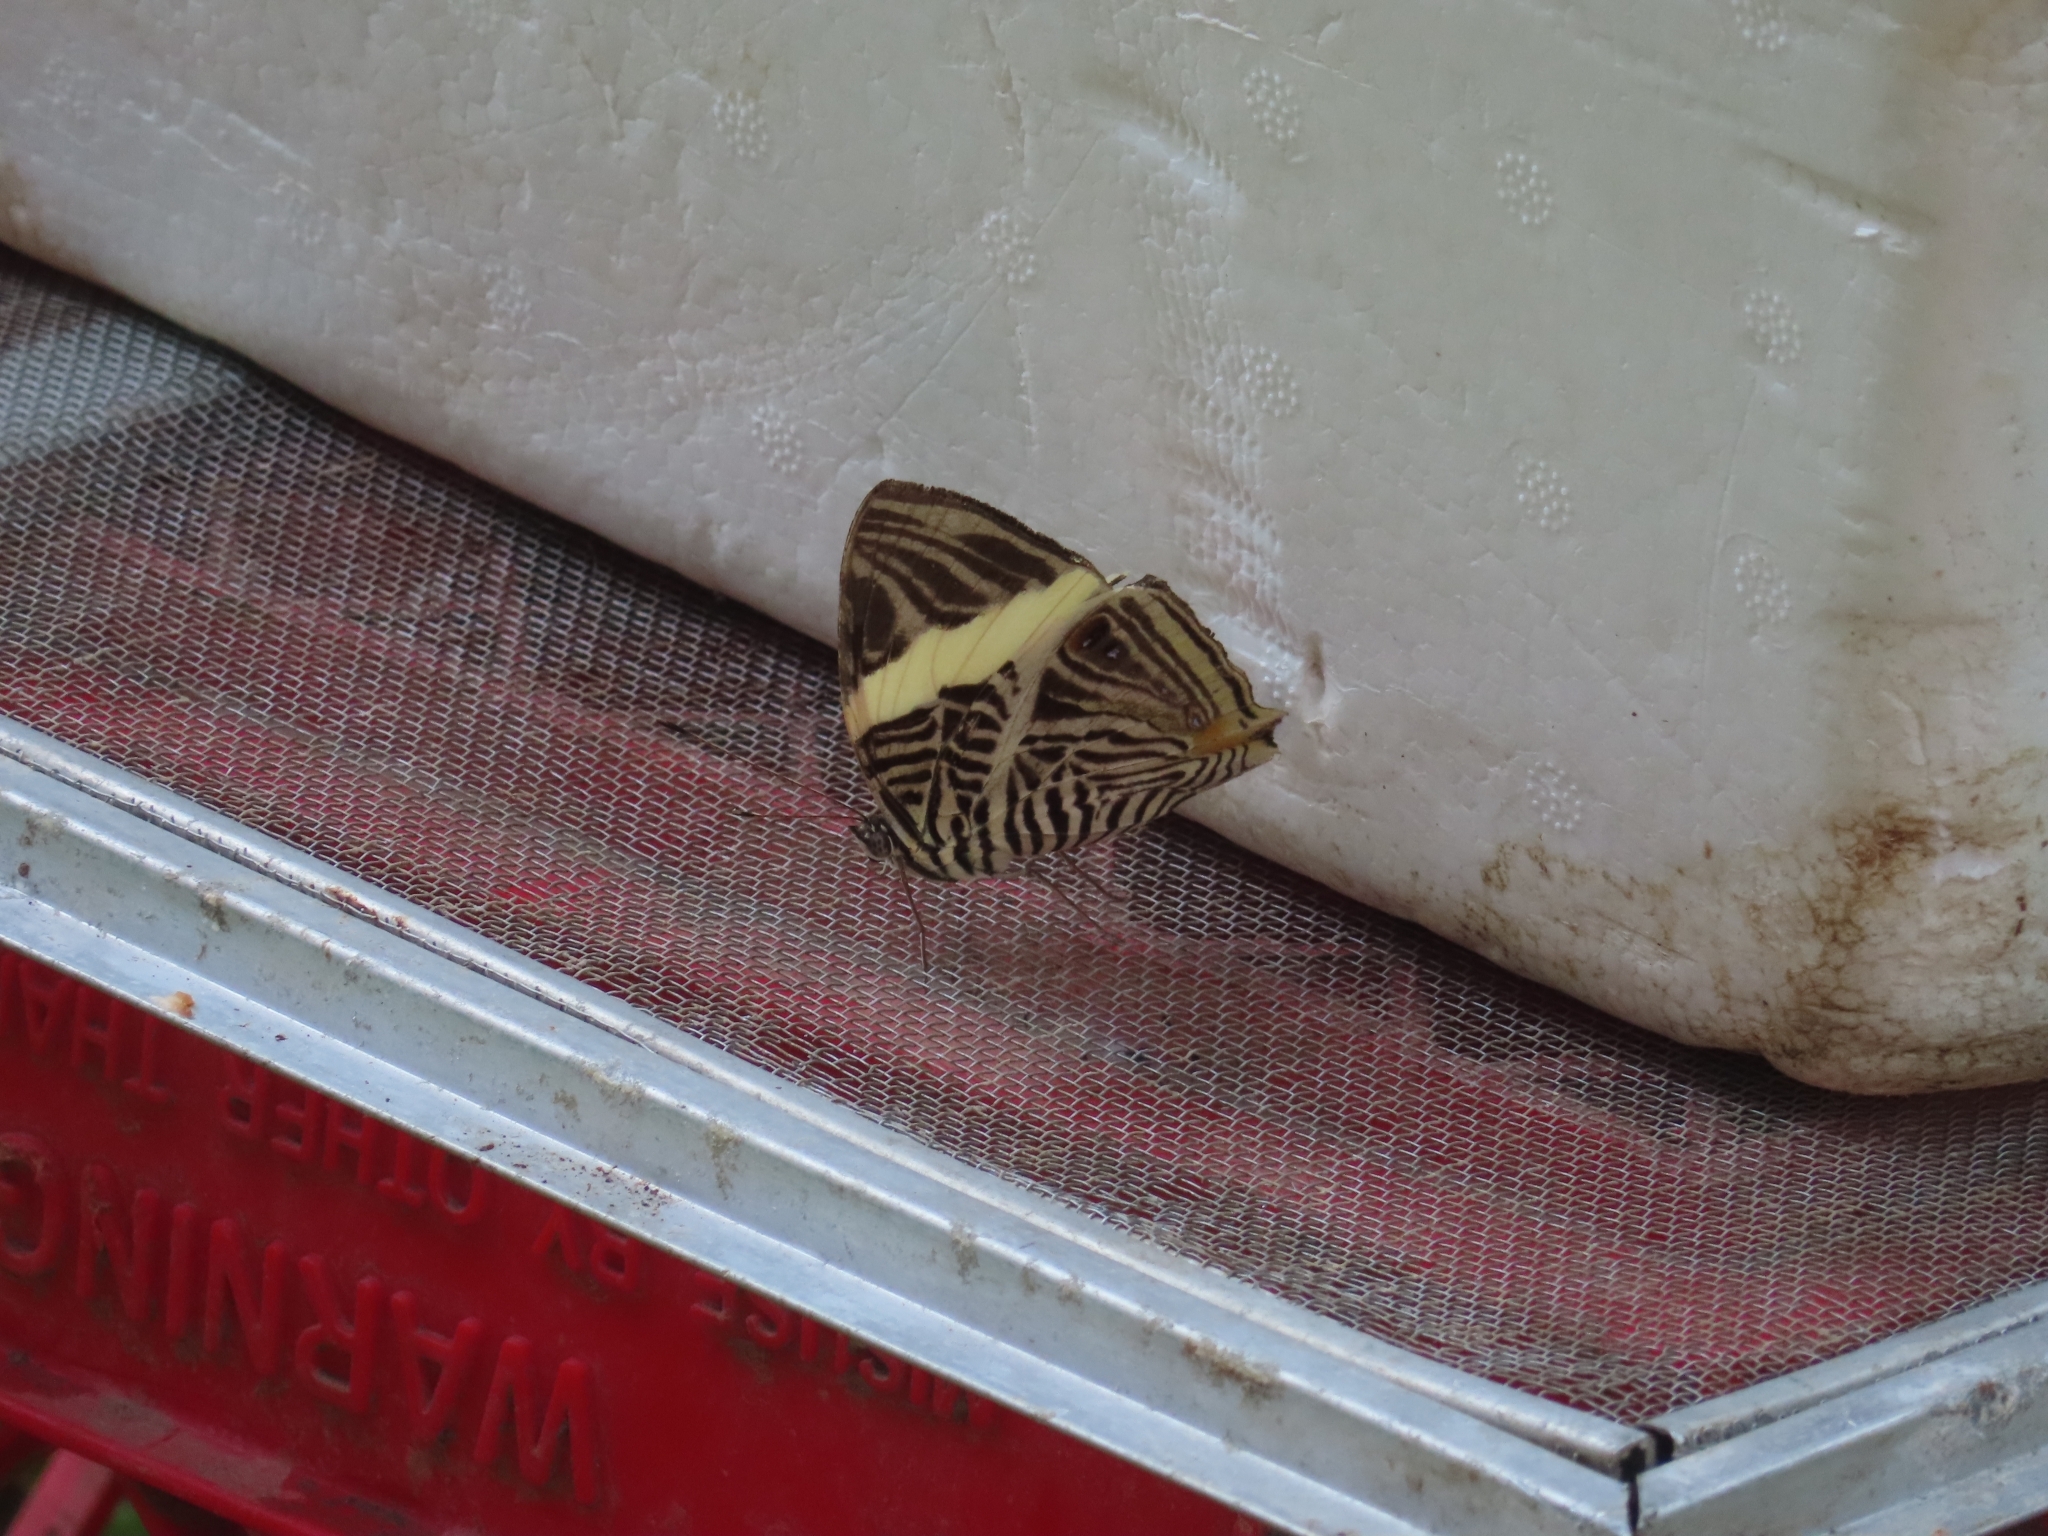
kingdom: Animalia
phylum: Arthropoda
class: Insecta
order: Lepidoptera
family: Nymphalidae
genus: Colobura
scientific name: Colobura dirce
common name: Dirce beauty
